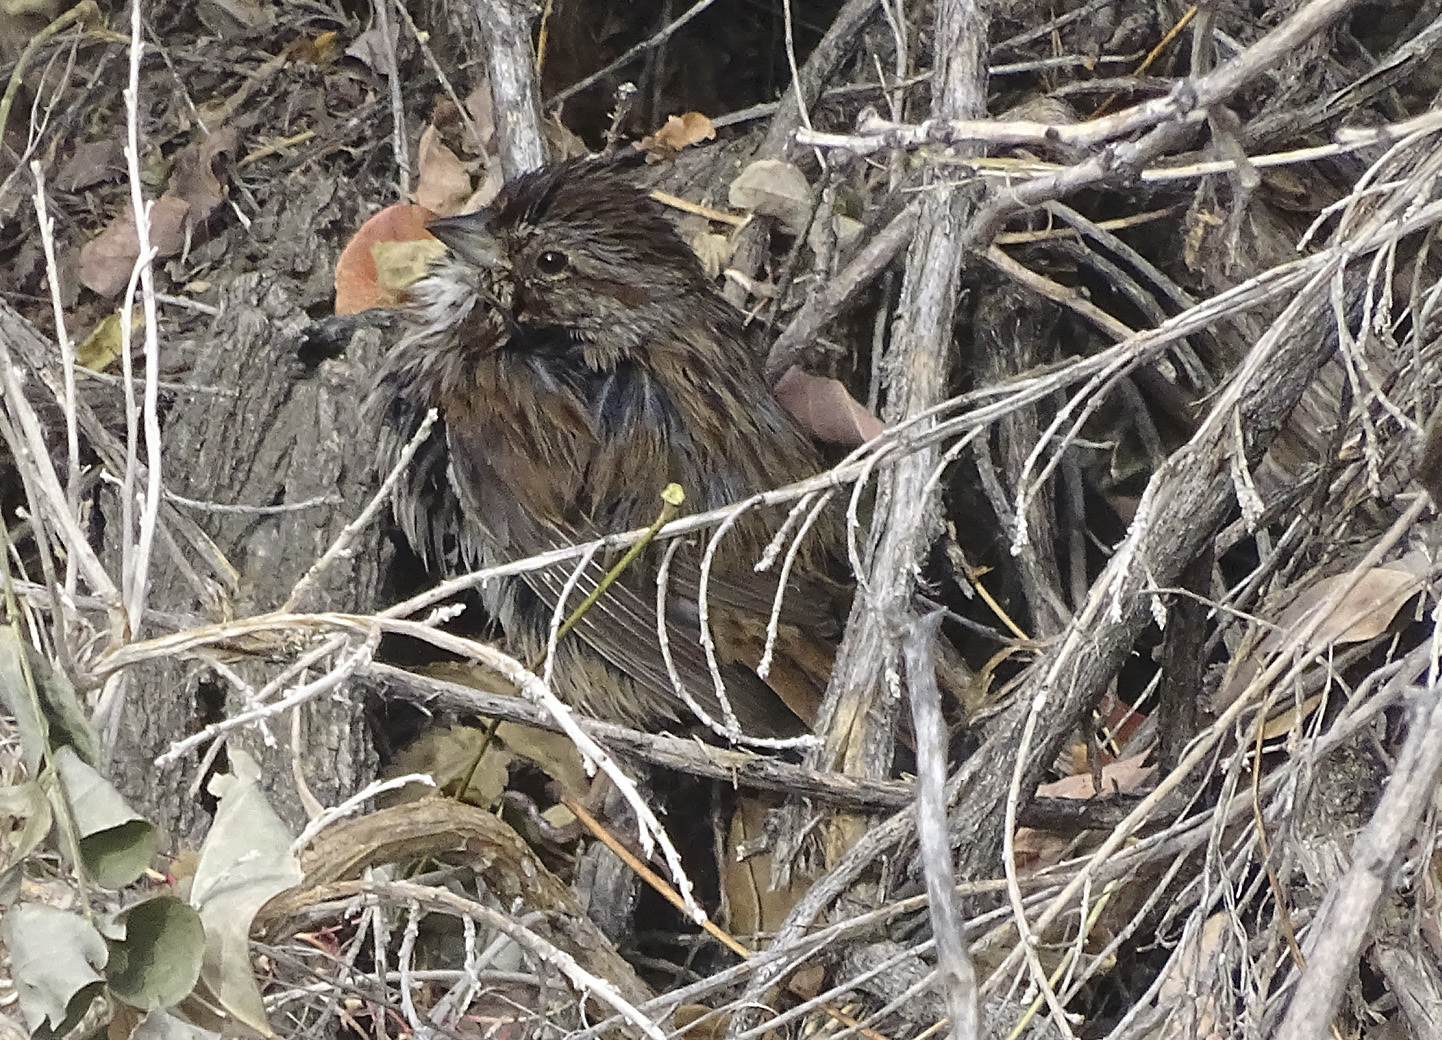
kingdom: Animalia
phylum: Chordata
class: Aves
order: Passeriformes
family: Passerellidae
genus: Melospiza
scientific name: Melospiza melodia
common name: Song sparrow
